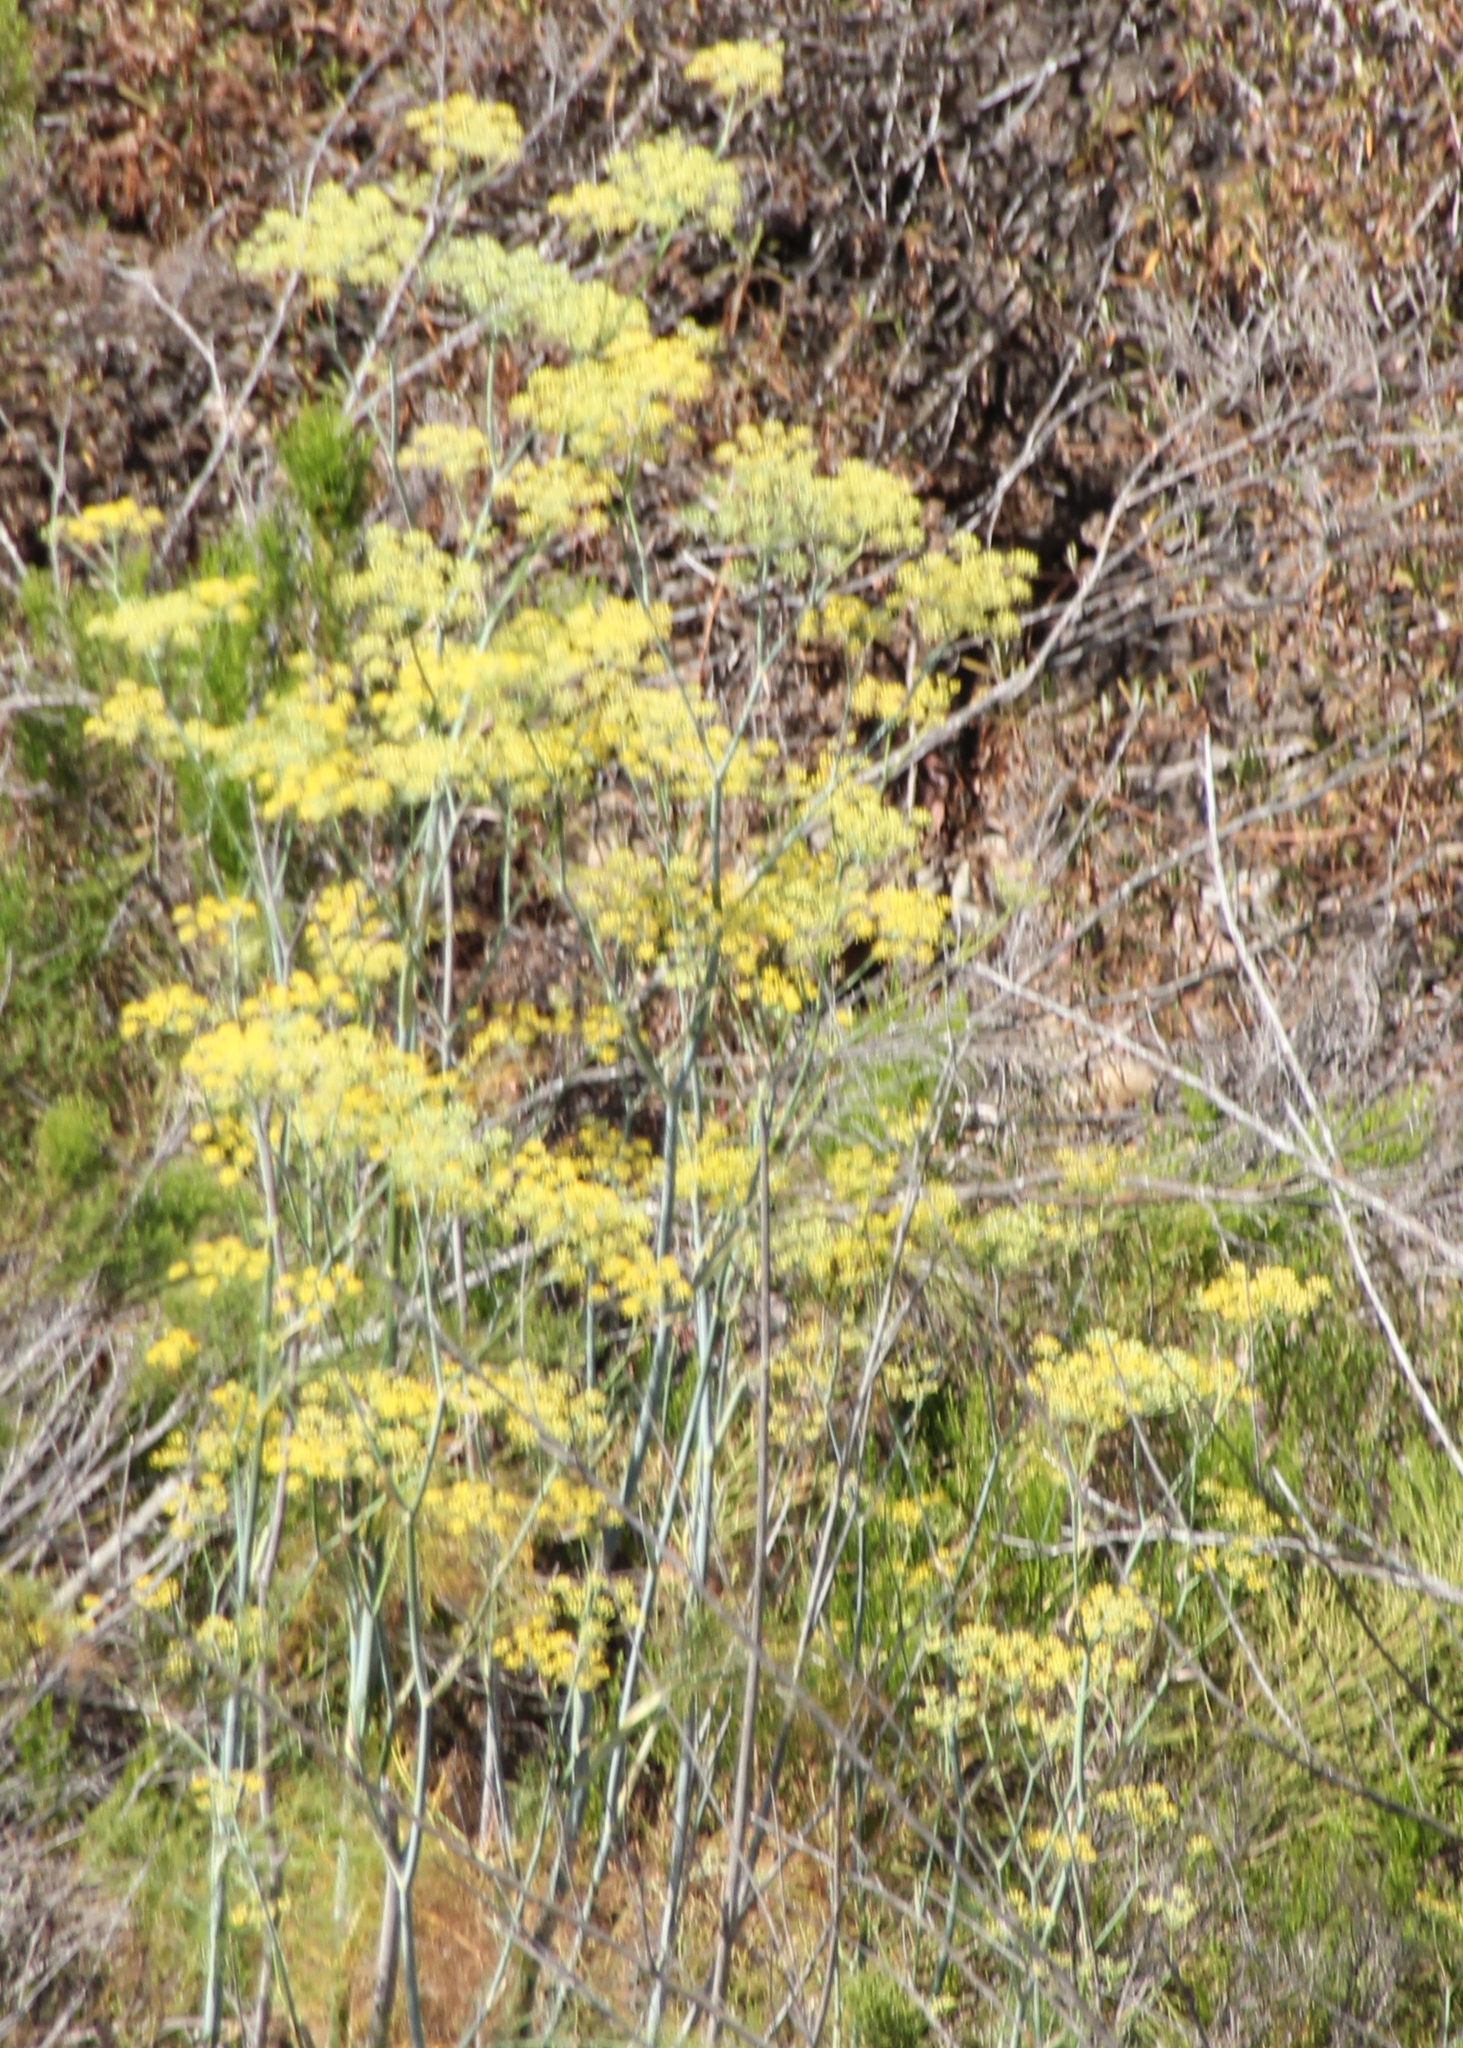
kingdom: Plantae
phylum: Tracheophyta
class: Magnoliopsida
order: Apiales
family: Apiaceae
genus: Foeniculum
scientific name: Foeniculum vulgare
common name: Fennel
